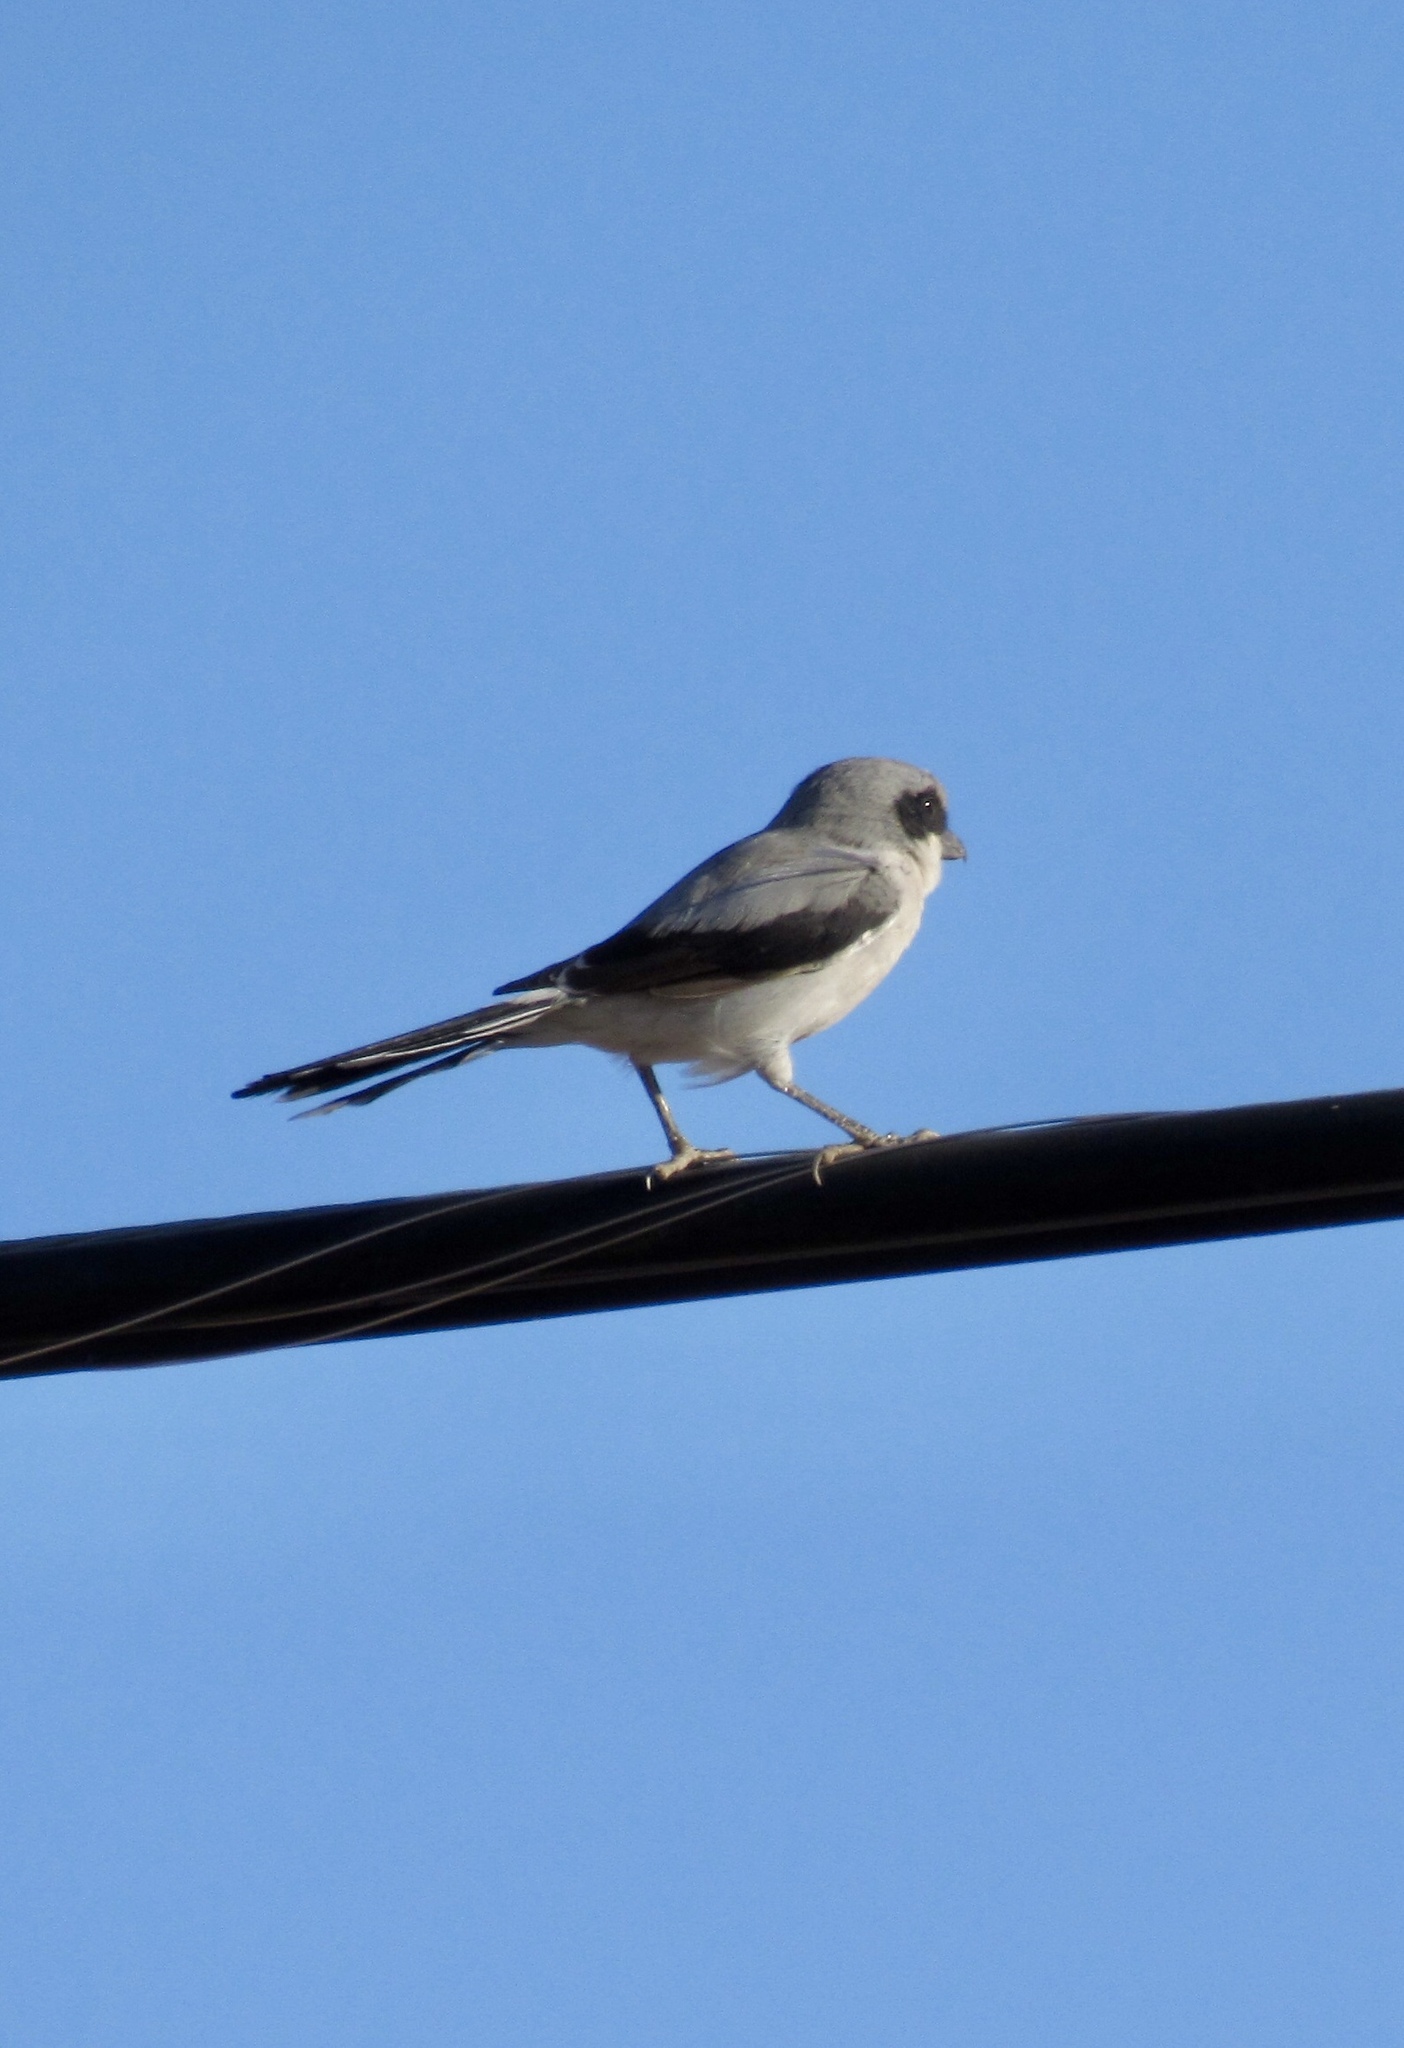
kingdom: Animalia
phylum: Chordata
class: Aves
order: Passeriformes
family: Laniidae
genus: Lanius
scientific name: Lanius ludovicianus
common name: Loggerhead shrike
